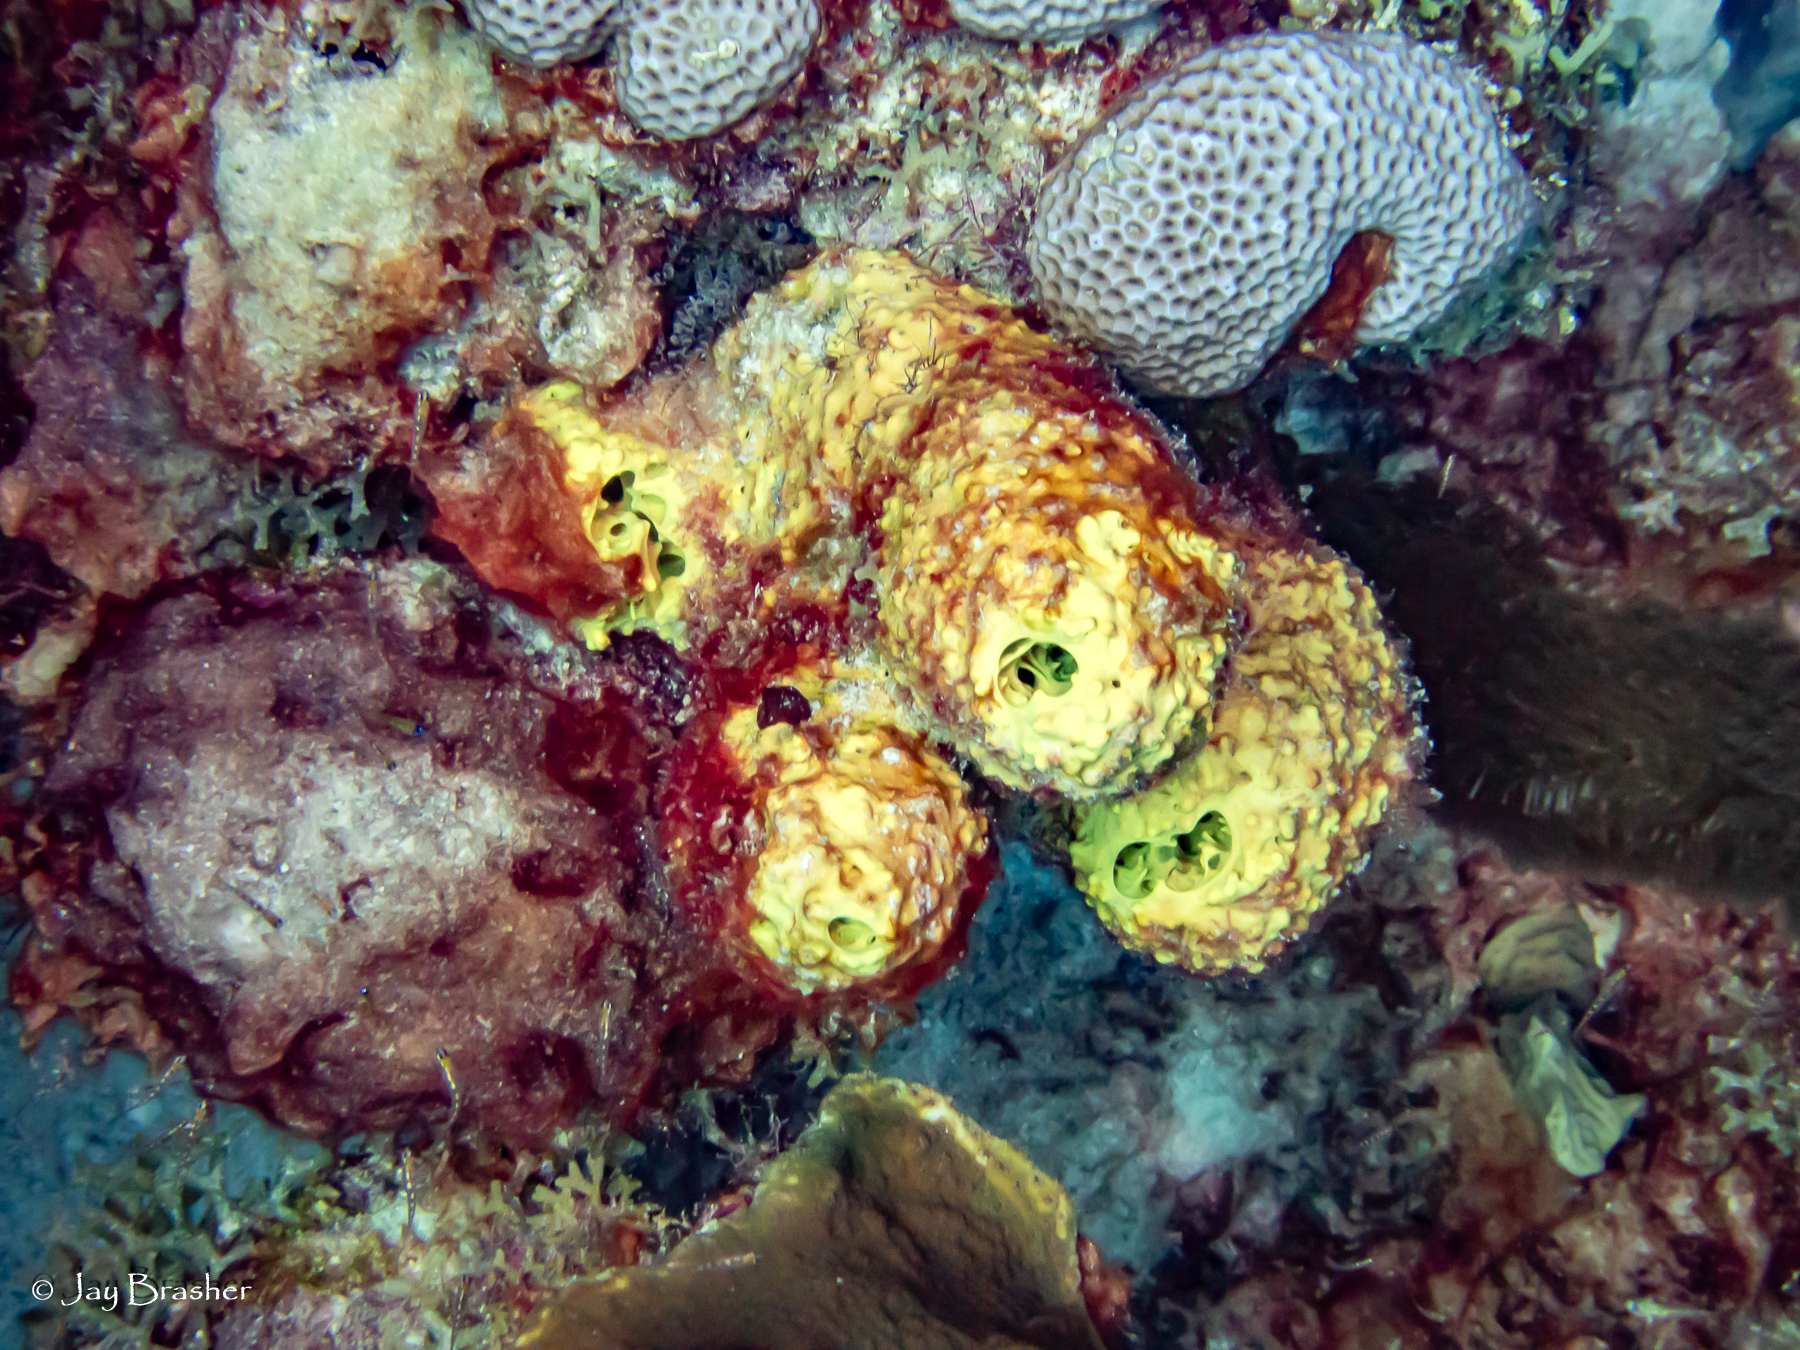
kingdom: Animalia
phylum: Cnidaria
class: Anthozoa
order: Scleractinia
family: Rhizangiidae
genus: Siderastrea
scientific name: Siderastrea siderea
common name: Massive starlet coral
